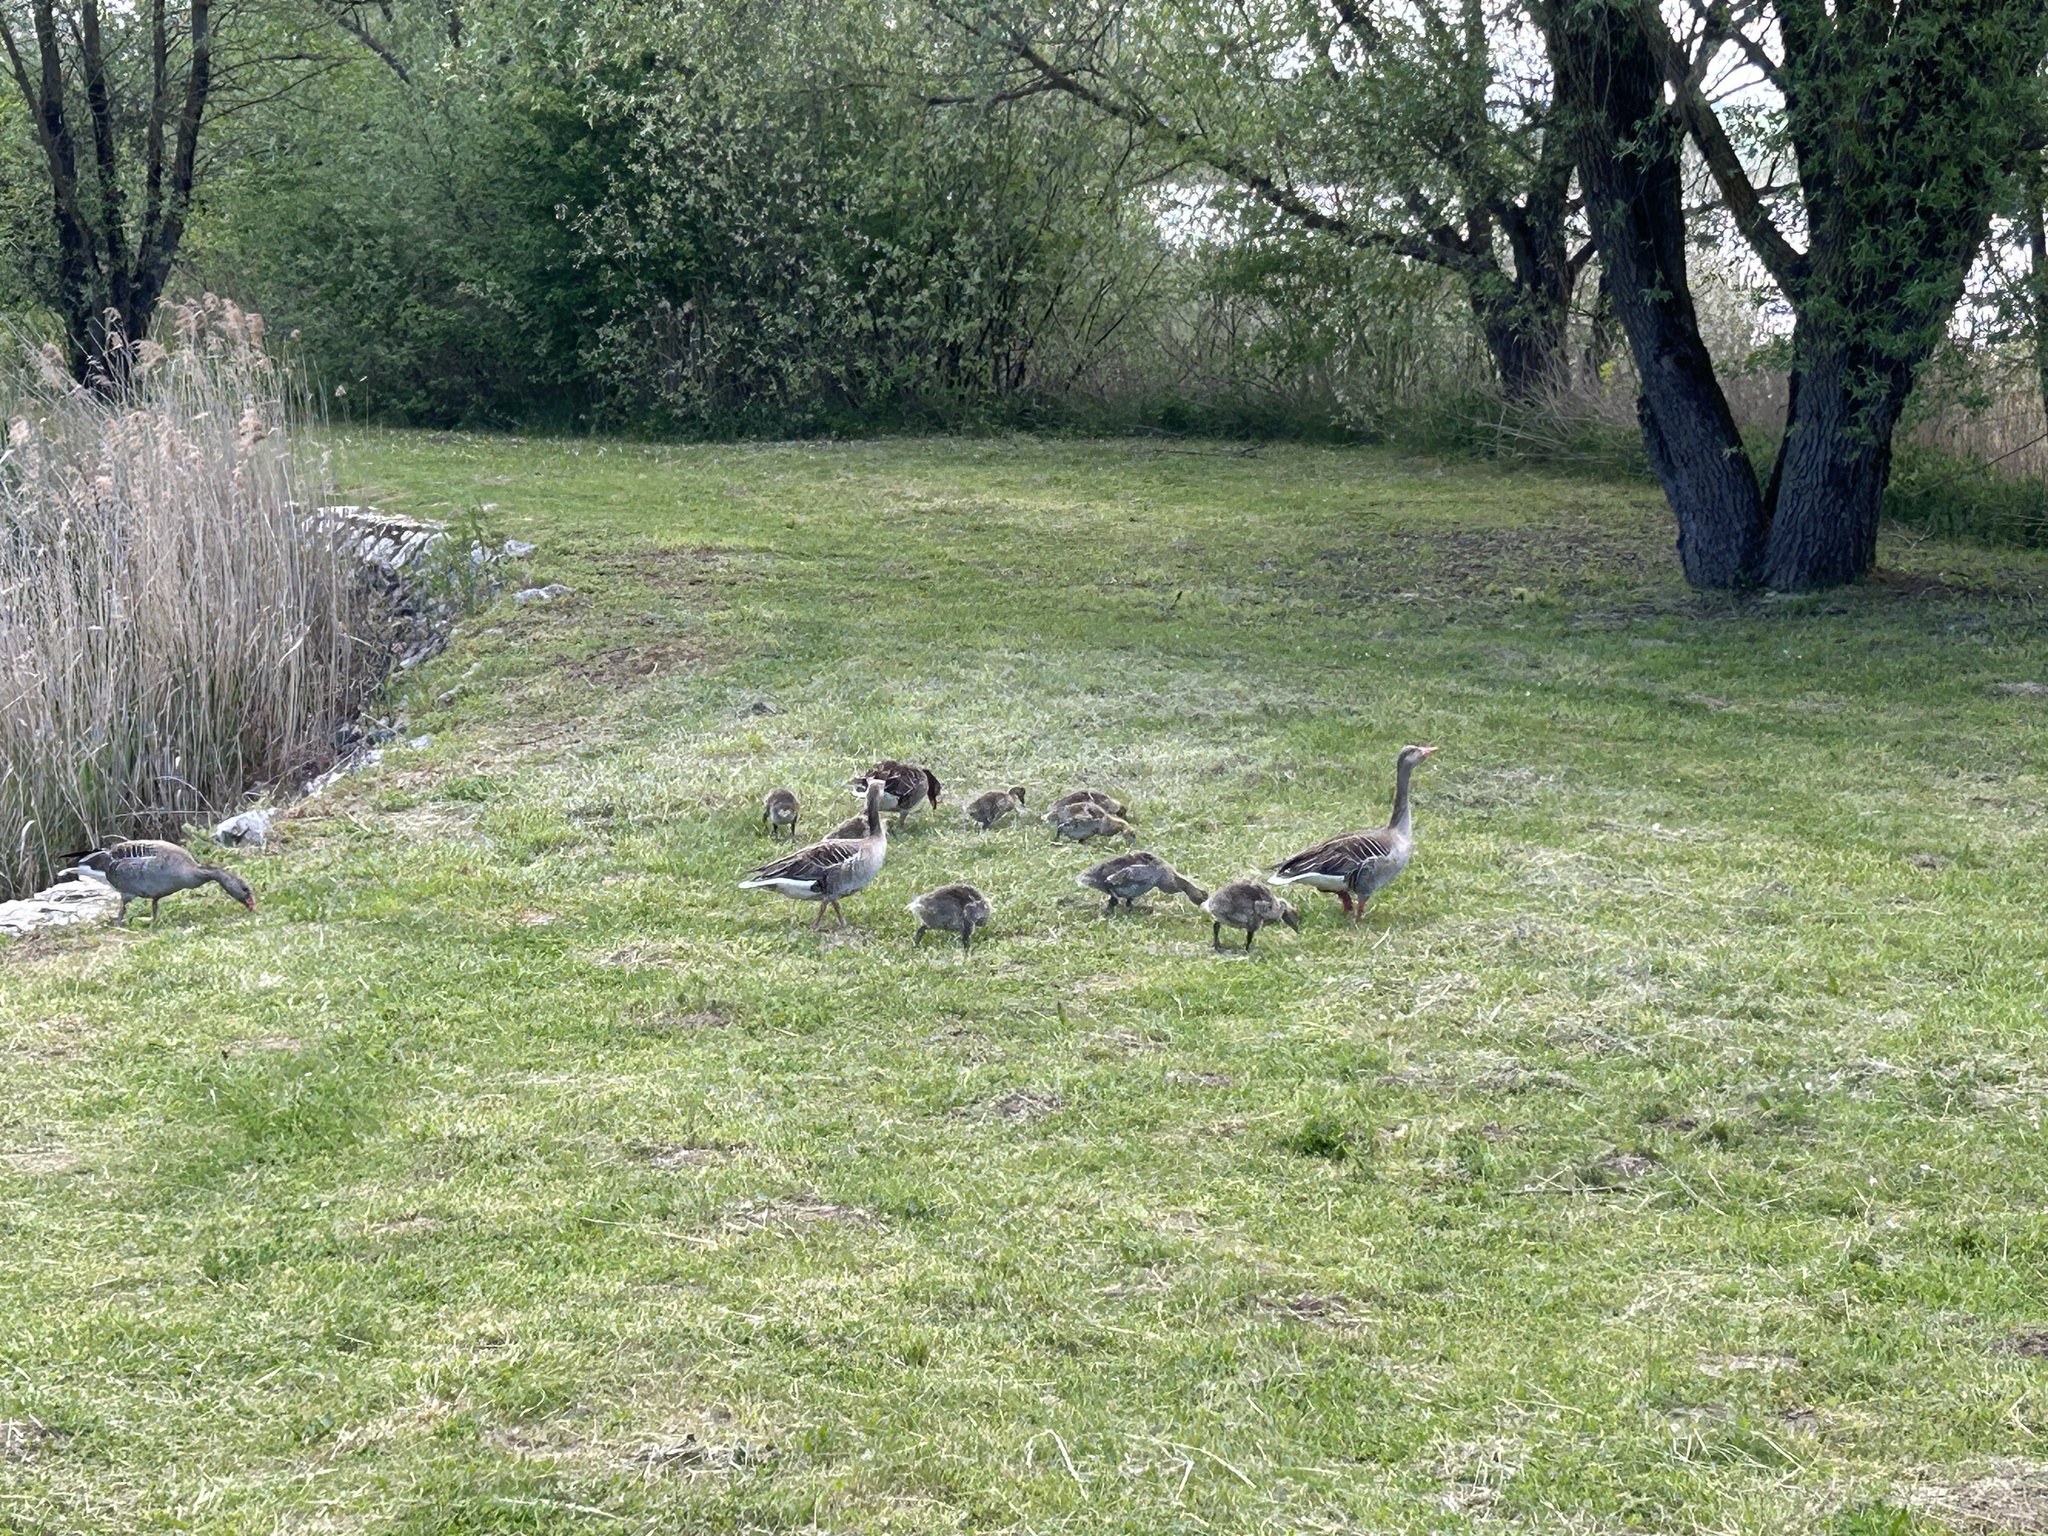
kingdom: Animalia
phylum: Chordata
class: Aves
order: Anseriformes
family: Anatidae
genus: Anser
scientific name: Anser anser
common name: Greylag goose
